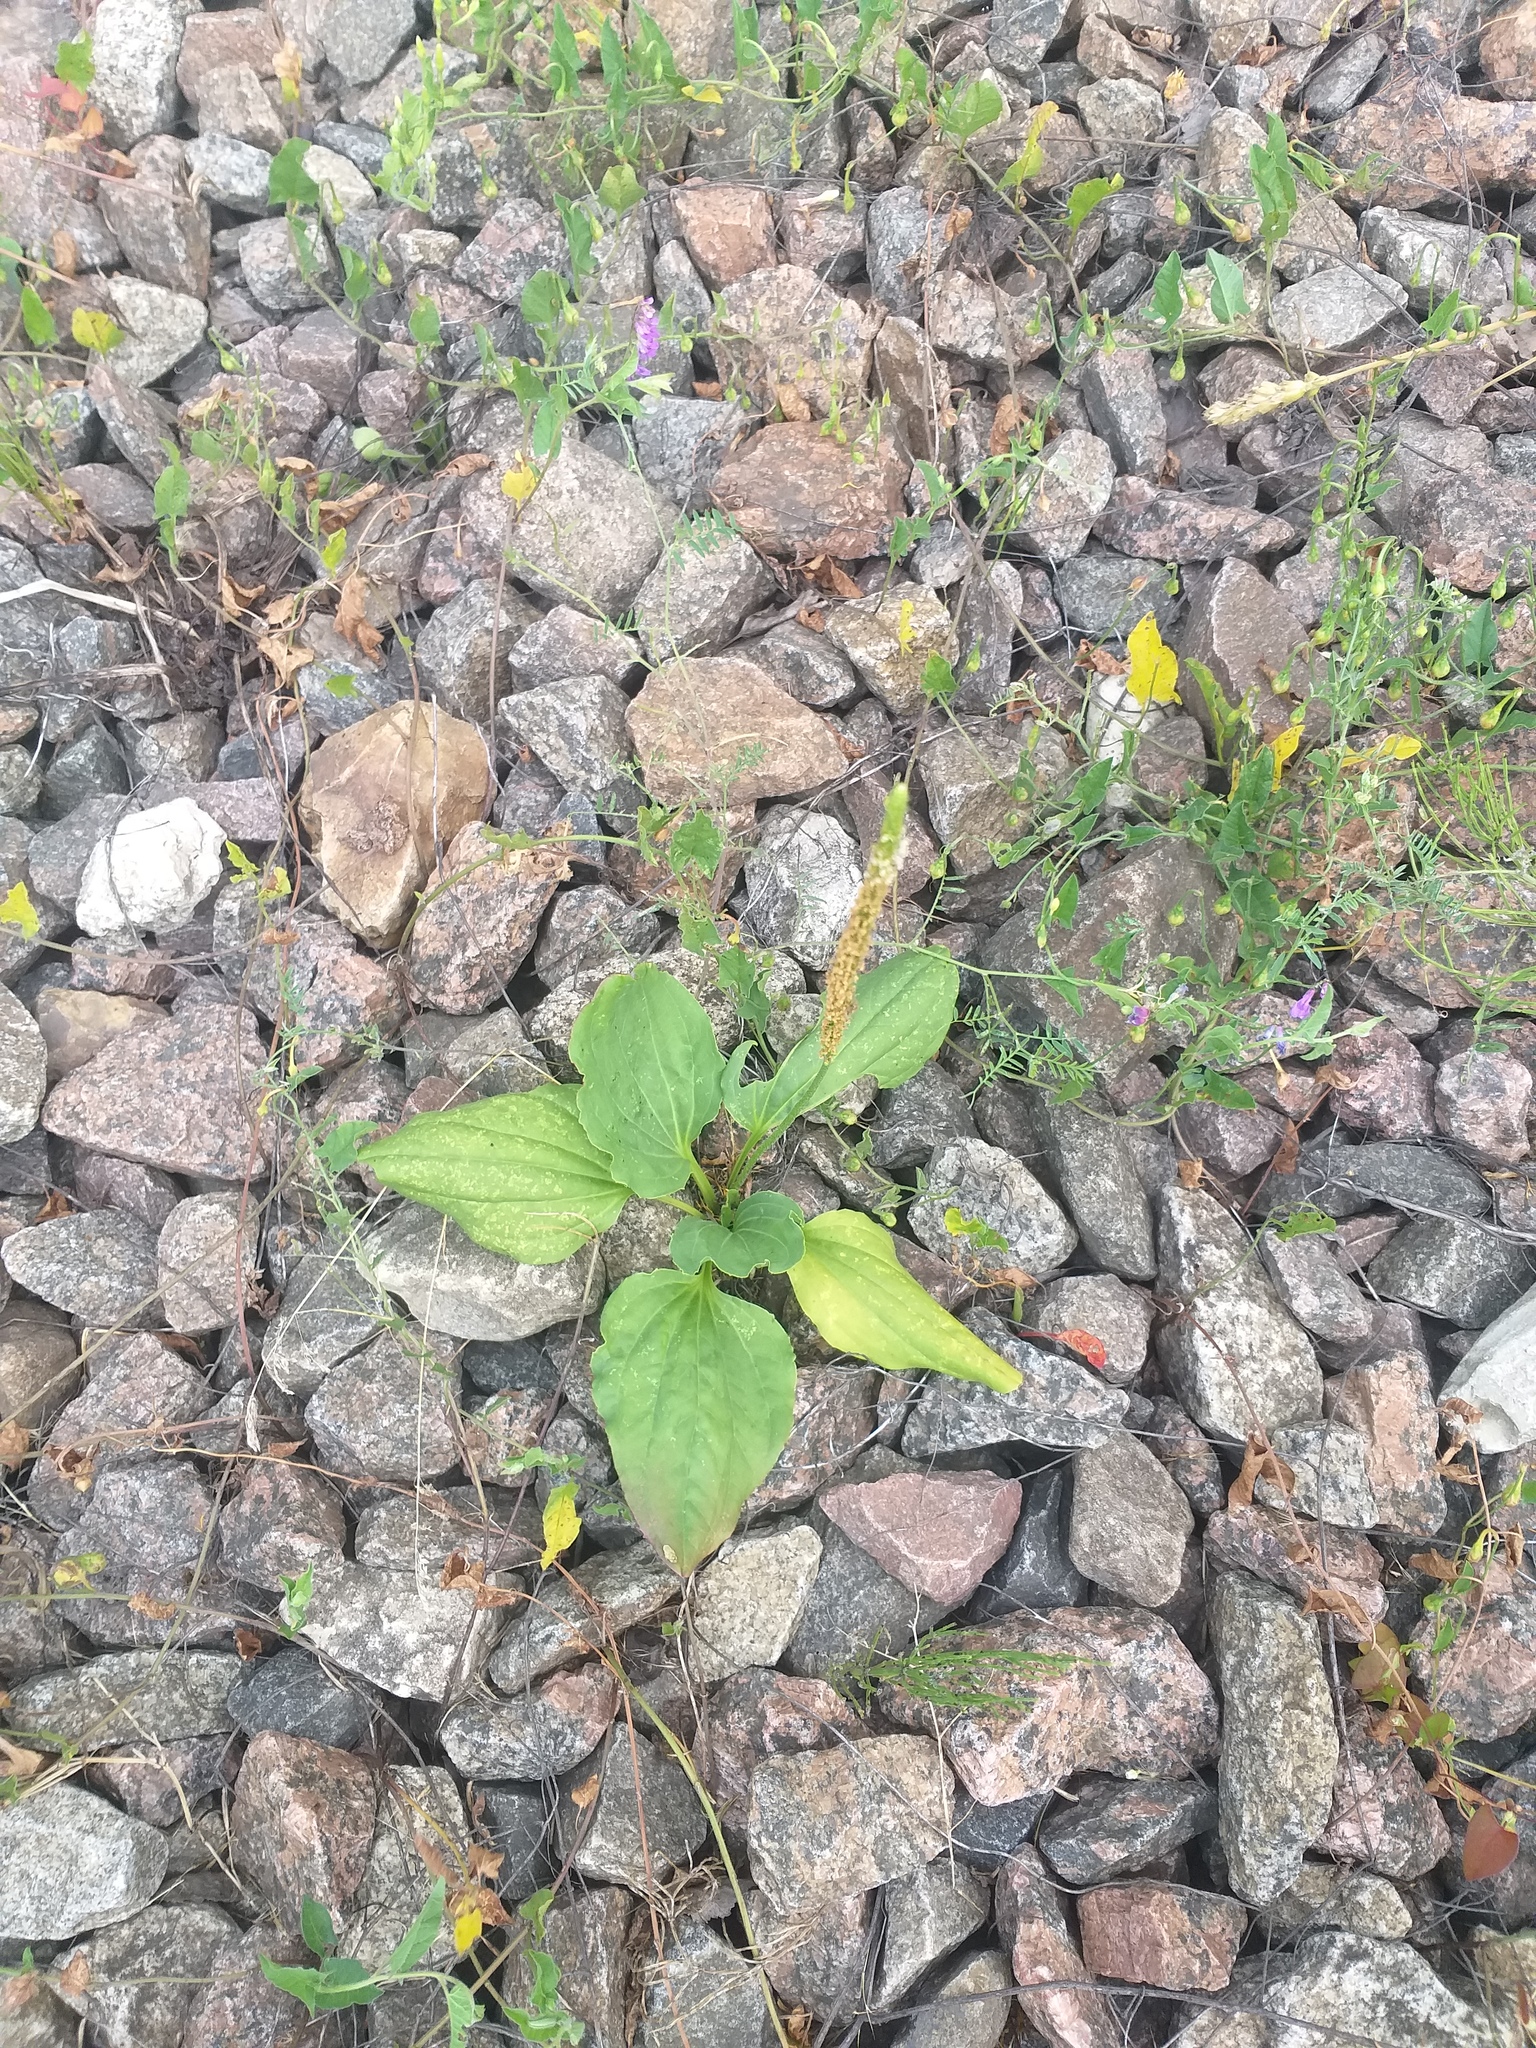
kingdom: Plantae
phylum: Tracheophyta
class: Magnoliopsida
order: Lamiales
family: Plantaginaceae
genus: Plantago
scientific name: Plantago major
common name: Common plantain
